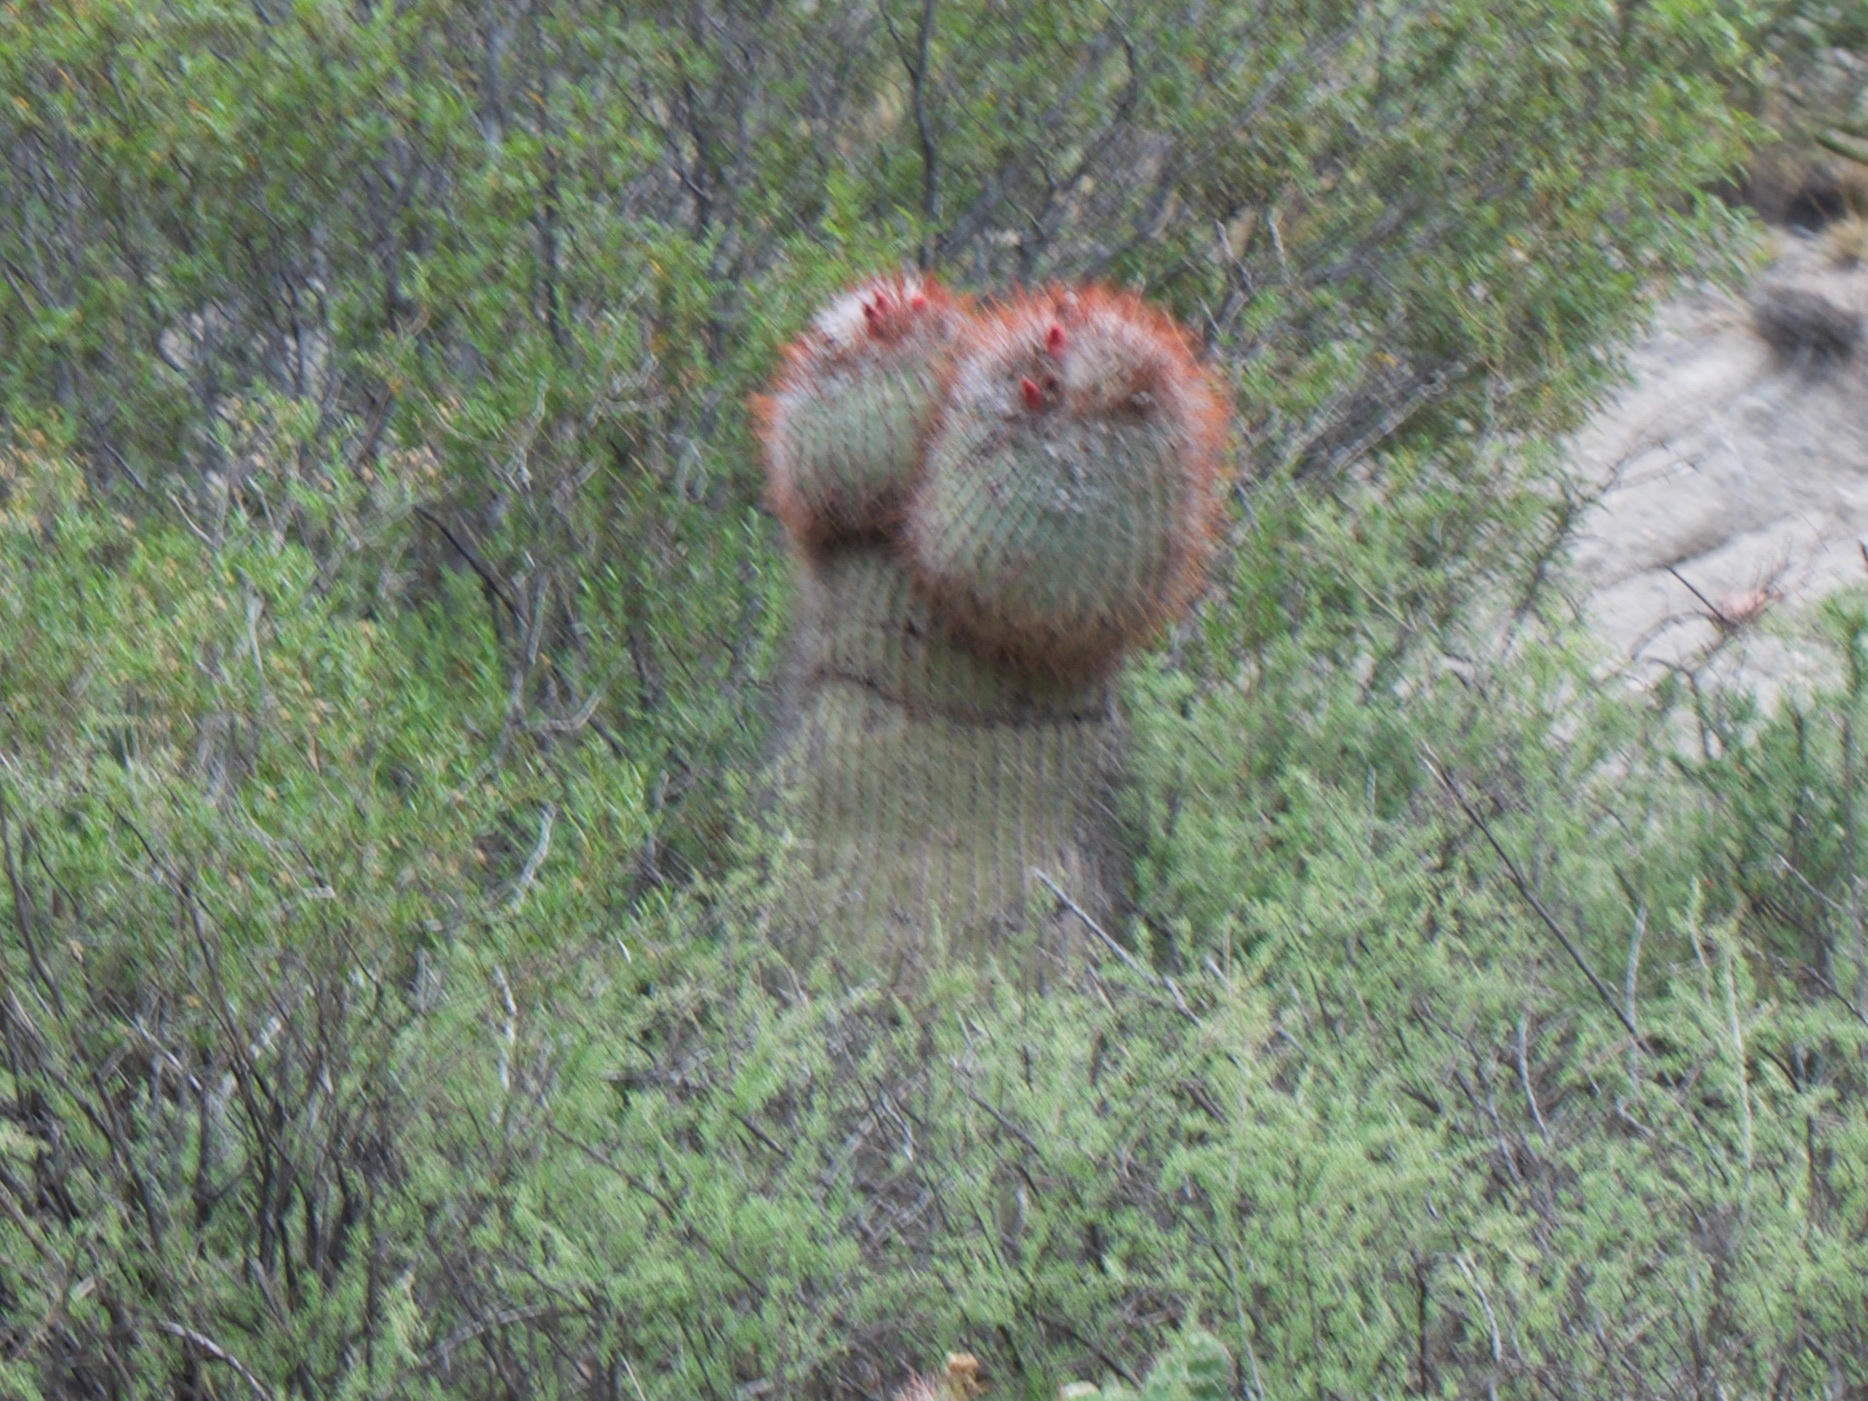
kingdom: Plantae
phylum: Tracheophyta
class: Magnoliopsida
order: Caryophyllales
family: Cactaceae
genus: Denmoza
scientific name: Denmoza rhodacantha
